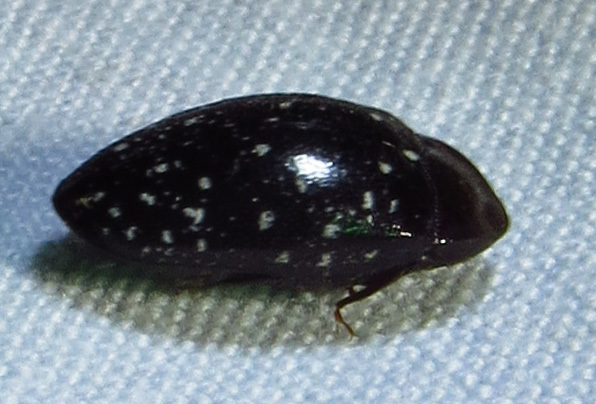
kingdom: Animalia
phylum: Arthropoda
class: Insecta
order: Coleoptera
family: Chelonariidae
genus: Chelonarium
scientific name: Chelonarium lecontei
